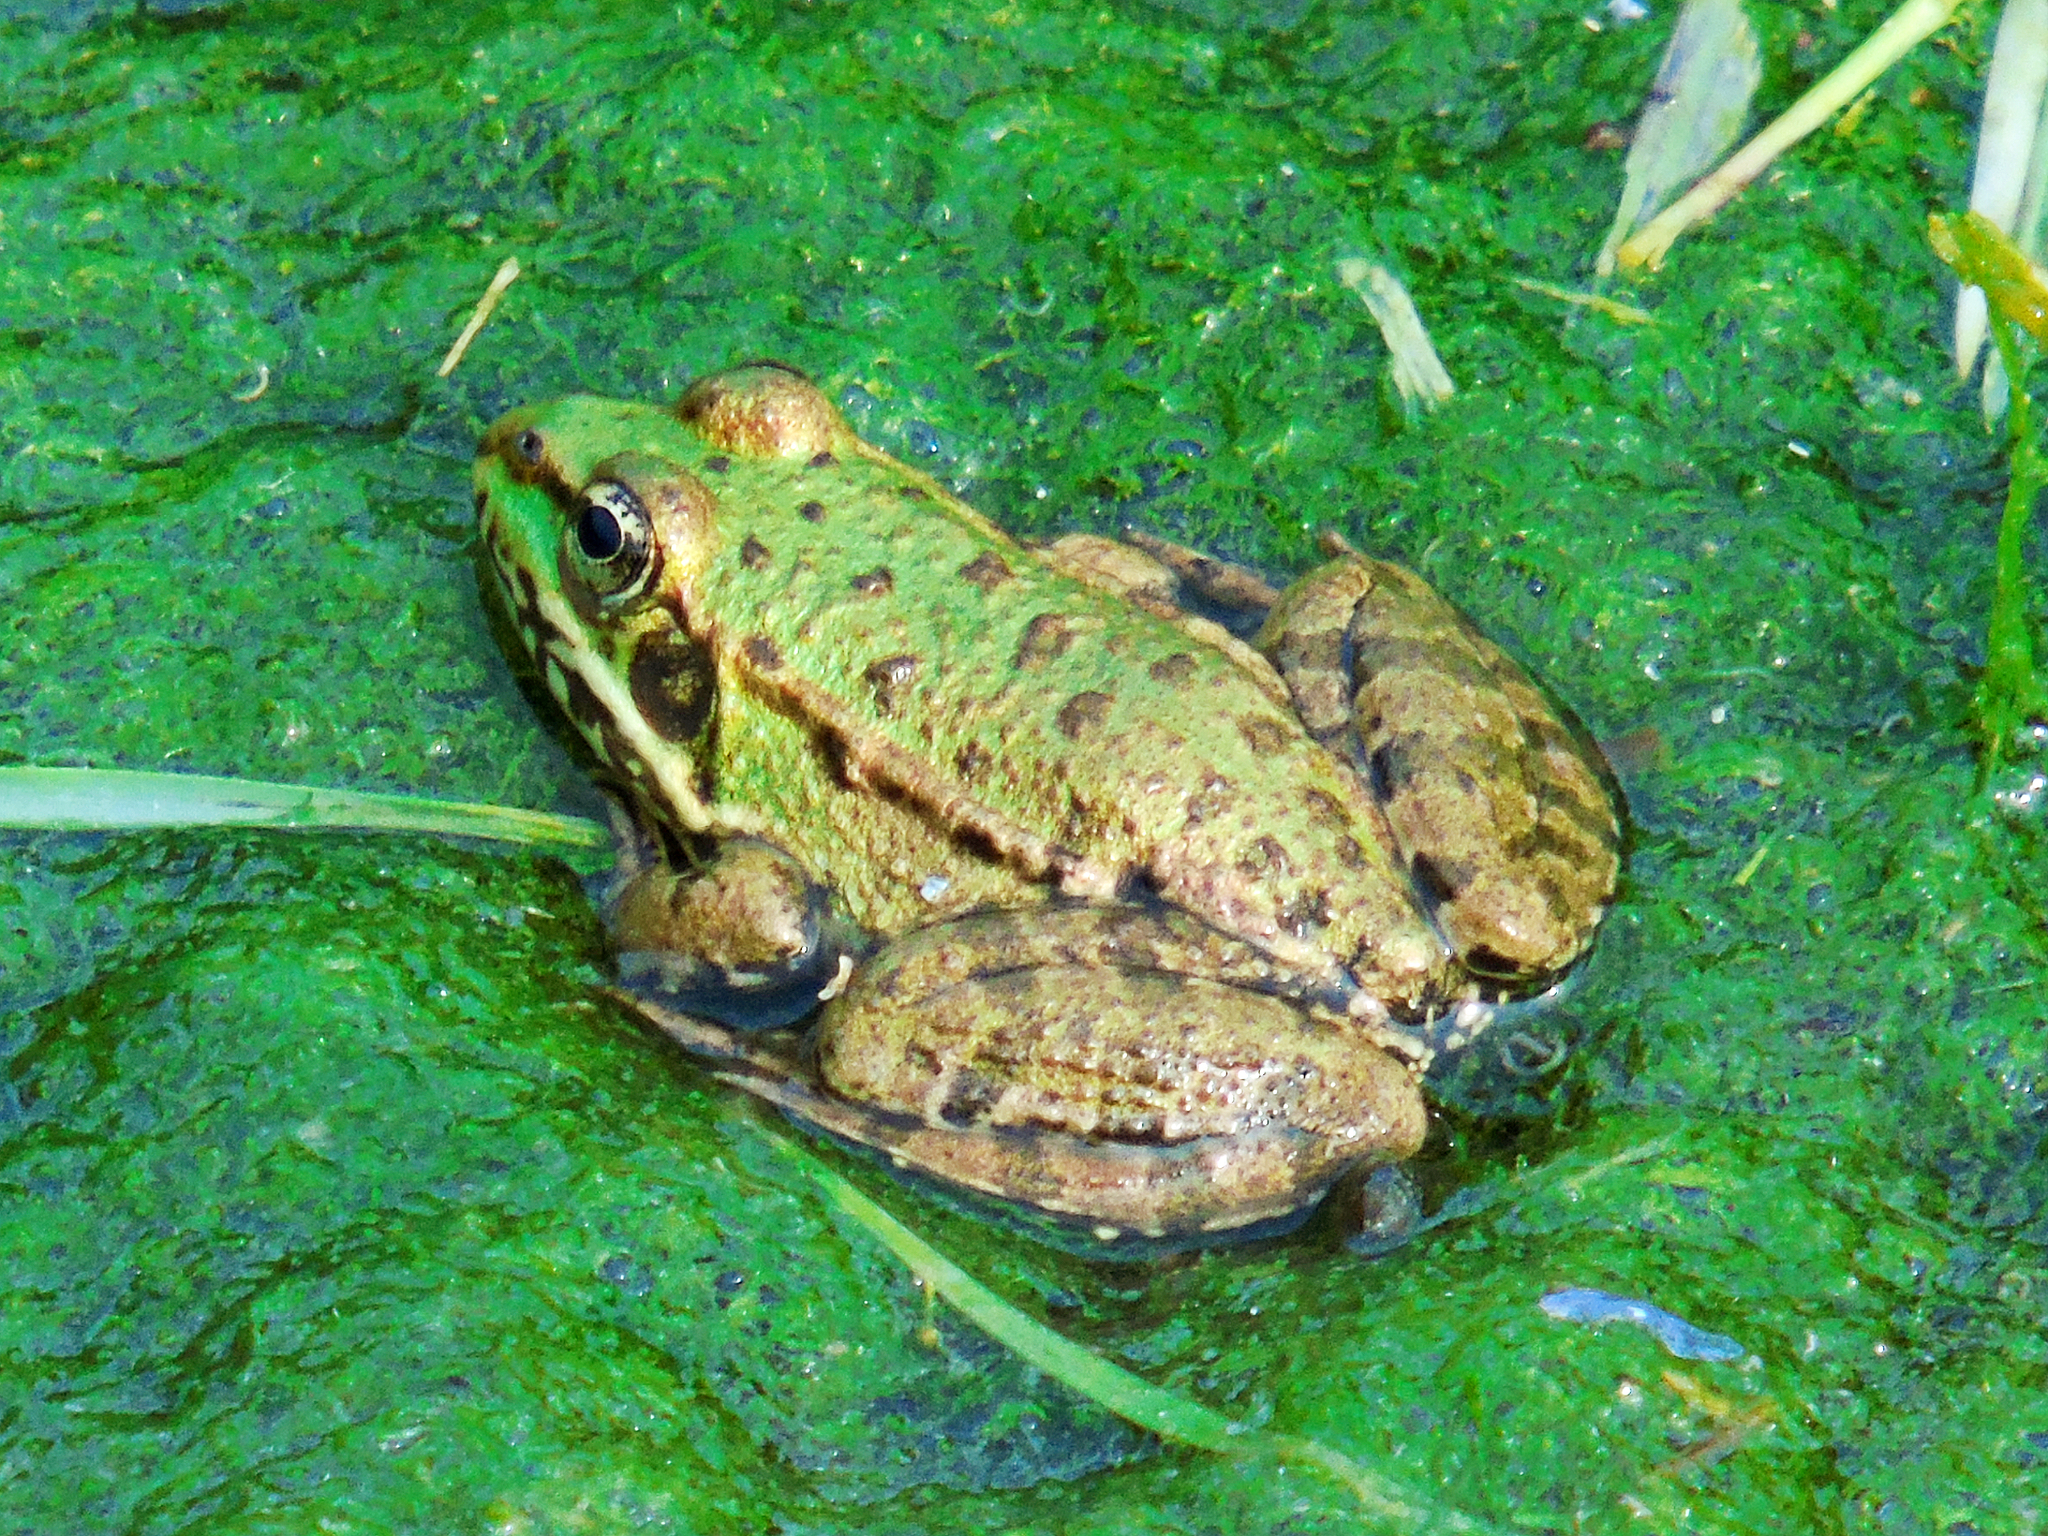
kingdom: Animalia
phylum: Chordata
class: Amphibia
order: Anura
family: Ranidae
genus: Pelophylax
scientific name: Pelophylax ridibundus
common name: Marsh frog
